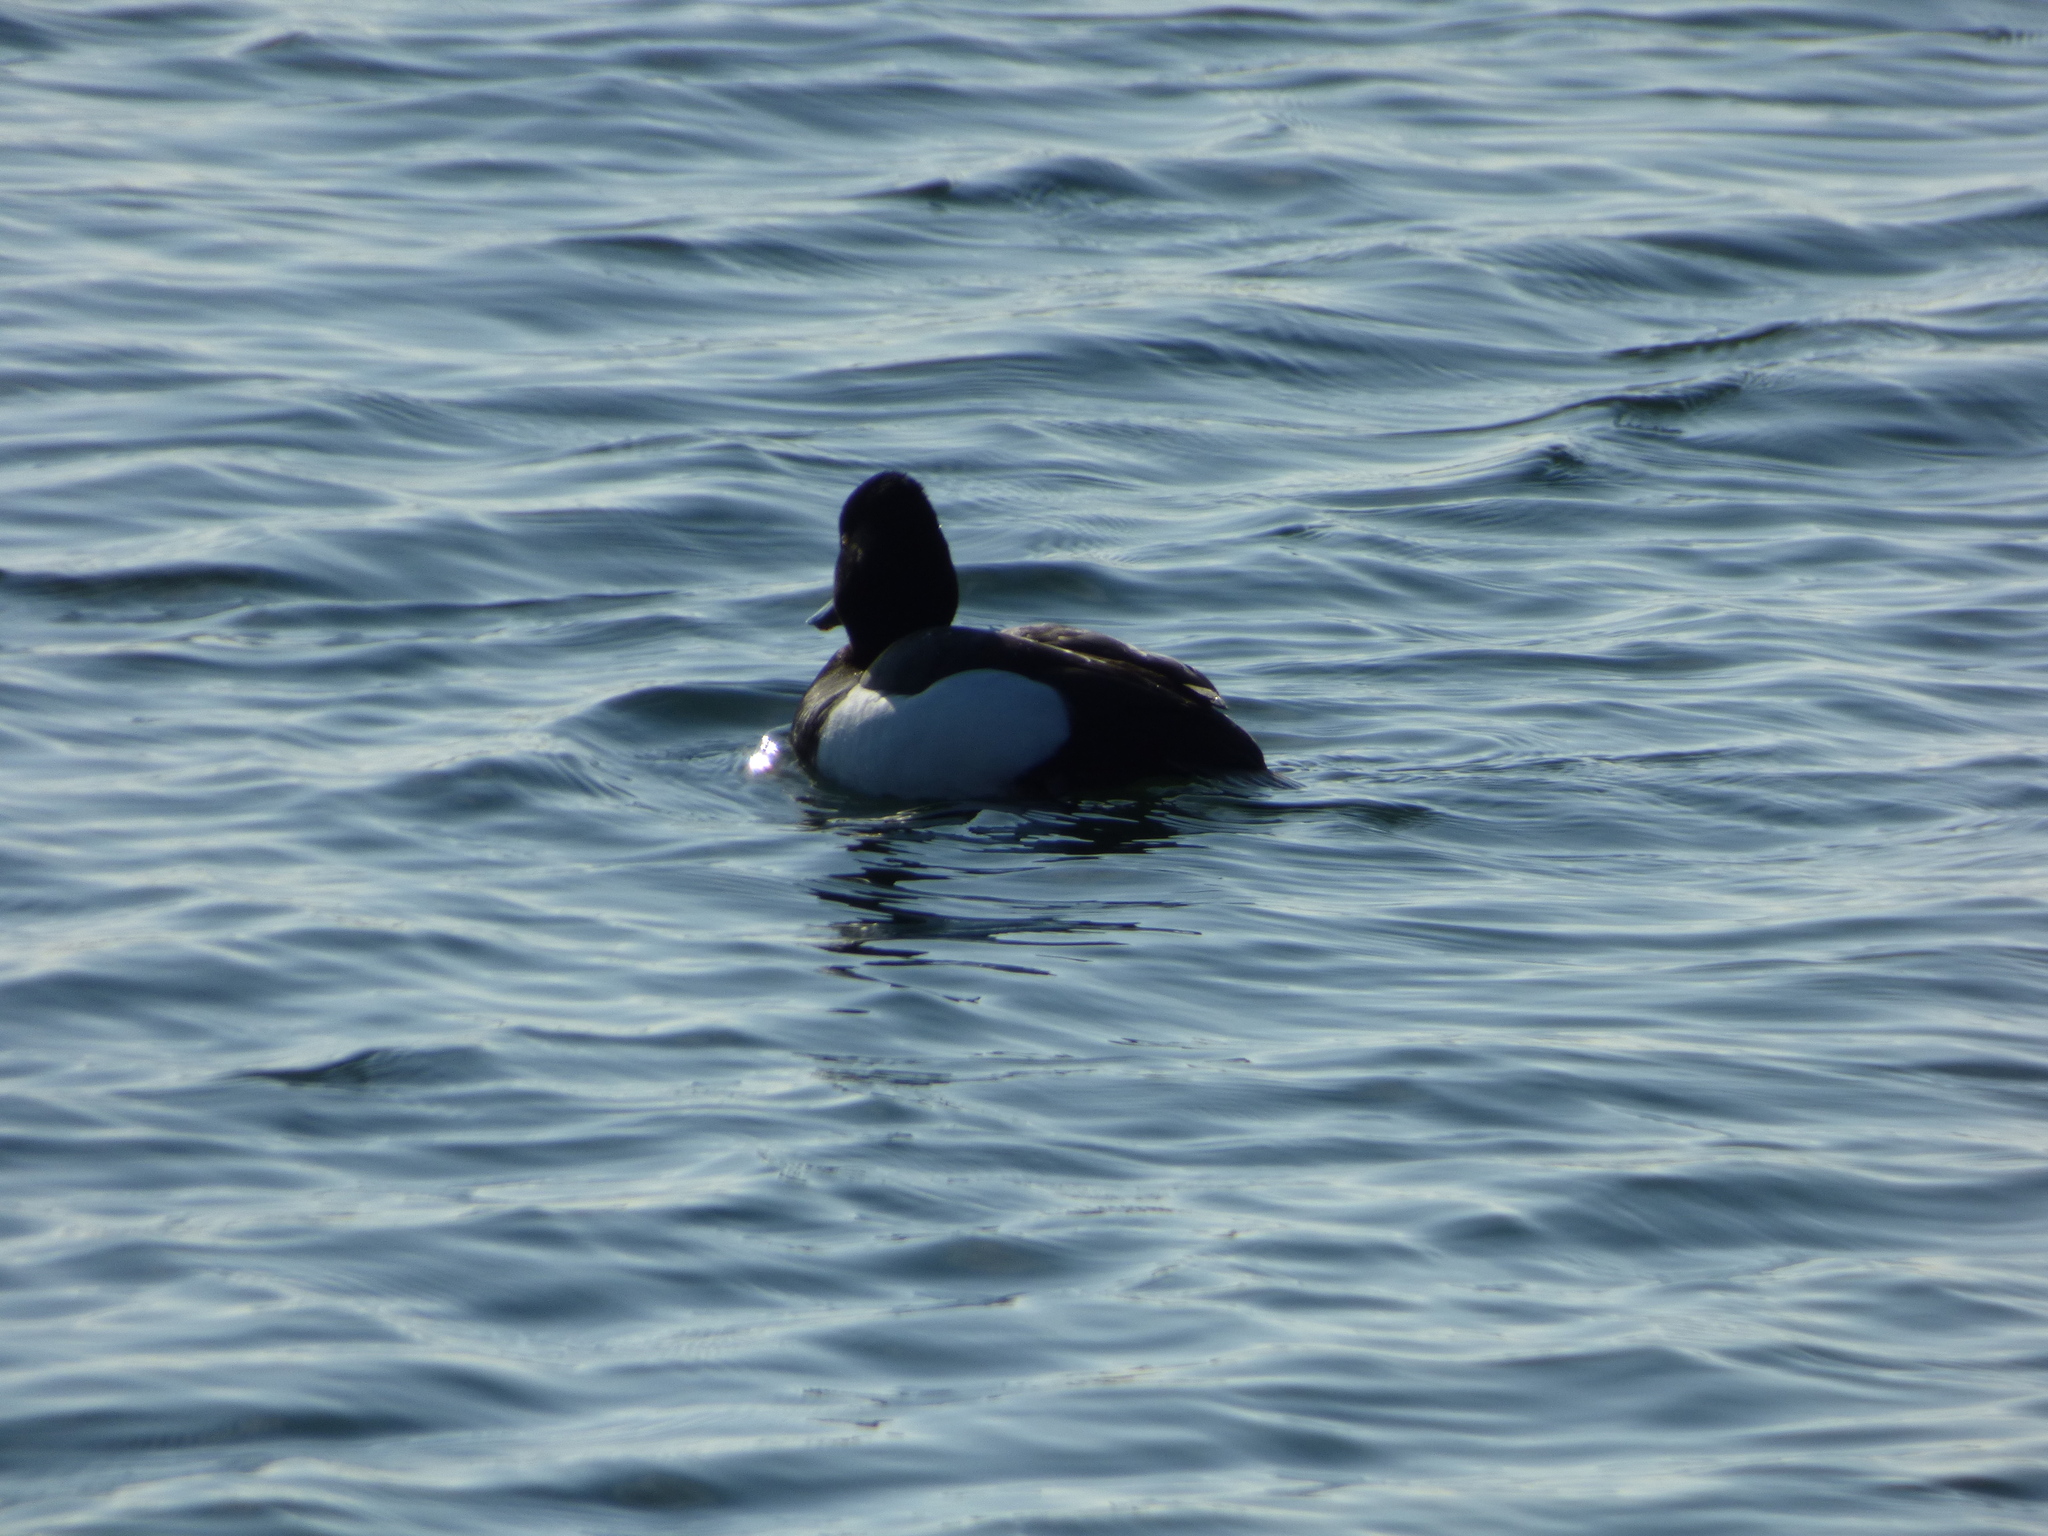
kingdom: Animalia
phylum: Chordata
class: Aves
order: Anseriformes
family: Anatidae
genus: Aythya
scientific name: Aythya
